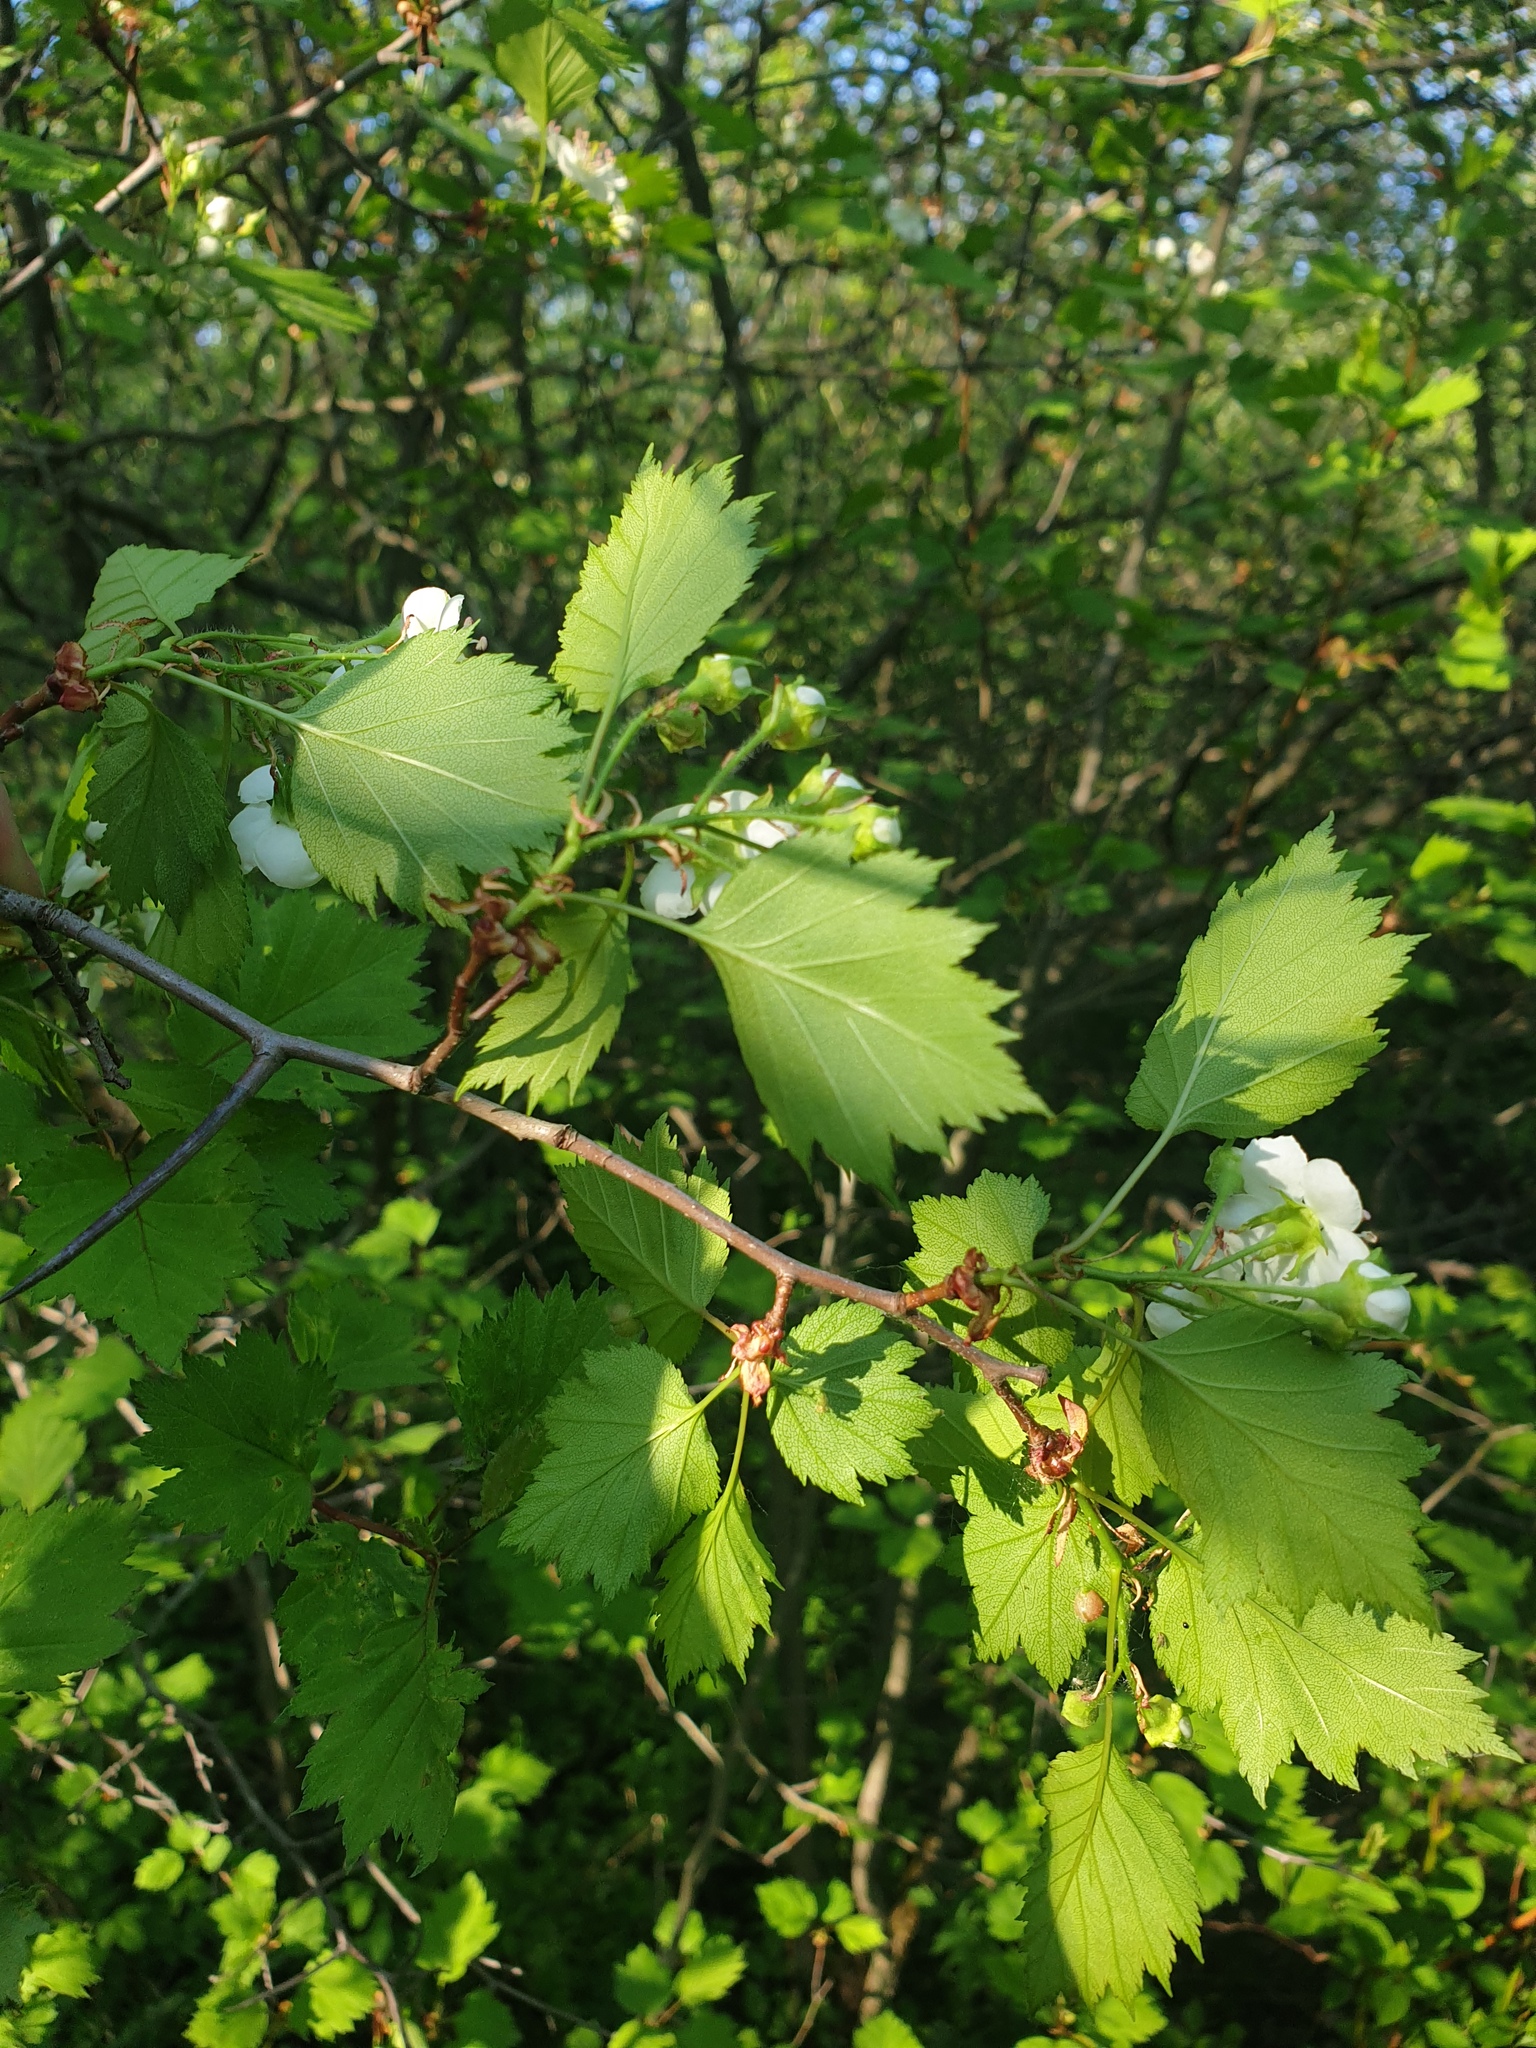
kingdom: Plantae
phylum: Tracheophyta
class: Magnoliopsida
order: Rosales
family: Rosaceae
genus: Crataegus
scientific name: Crataegus flabellata
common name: Bosc's hawthorn
